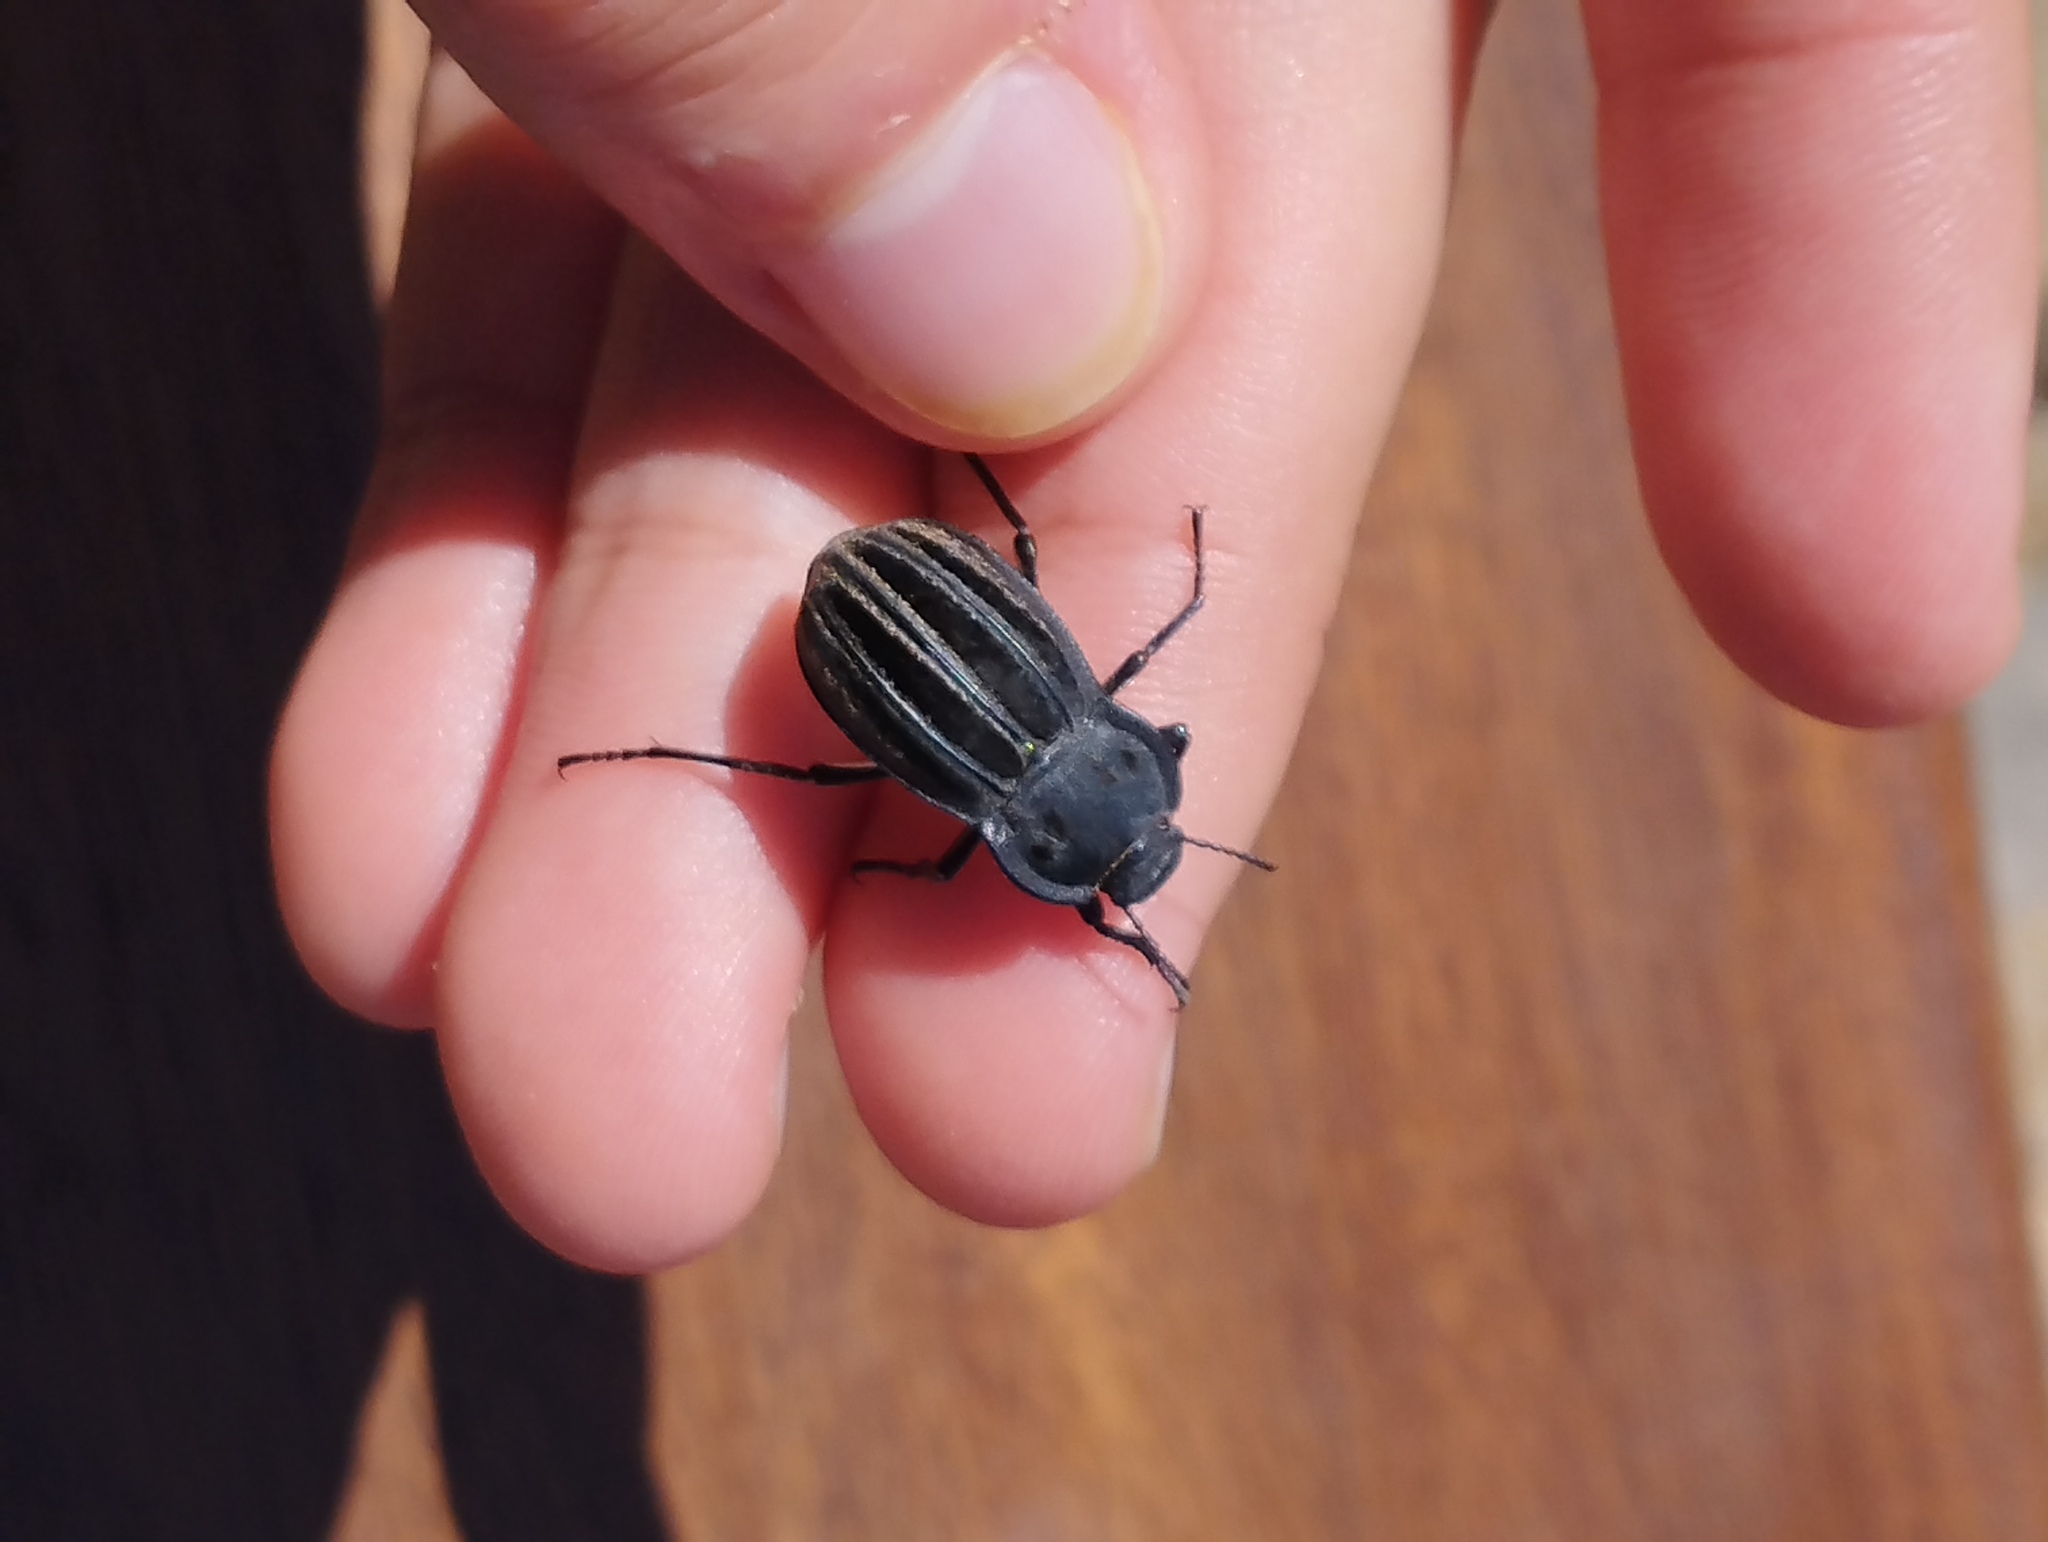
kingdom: Animalia
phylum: Arthropoda
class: Insecta
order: Coleoptera
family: Tenebrionidae
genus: Alphasida
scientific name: Alphasida holosericea
